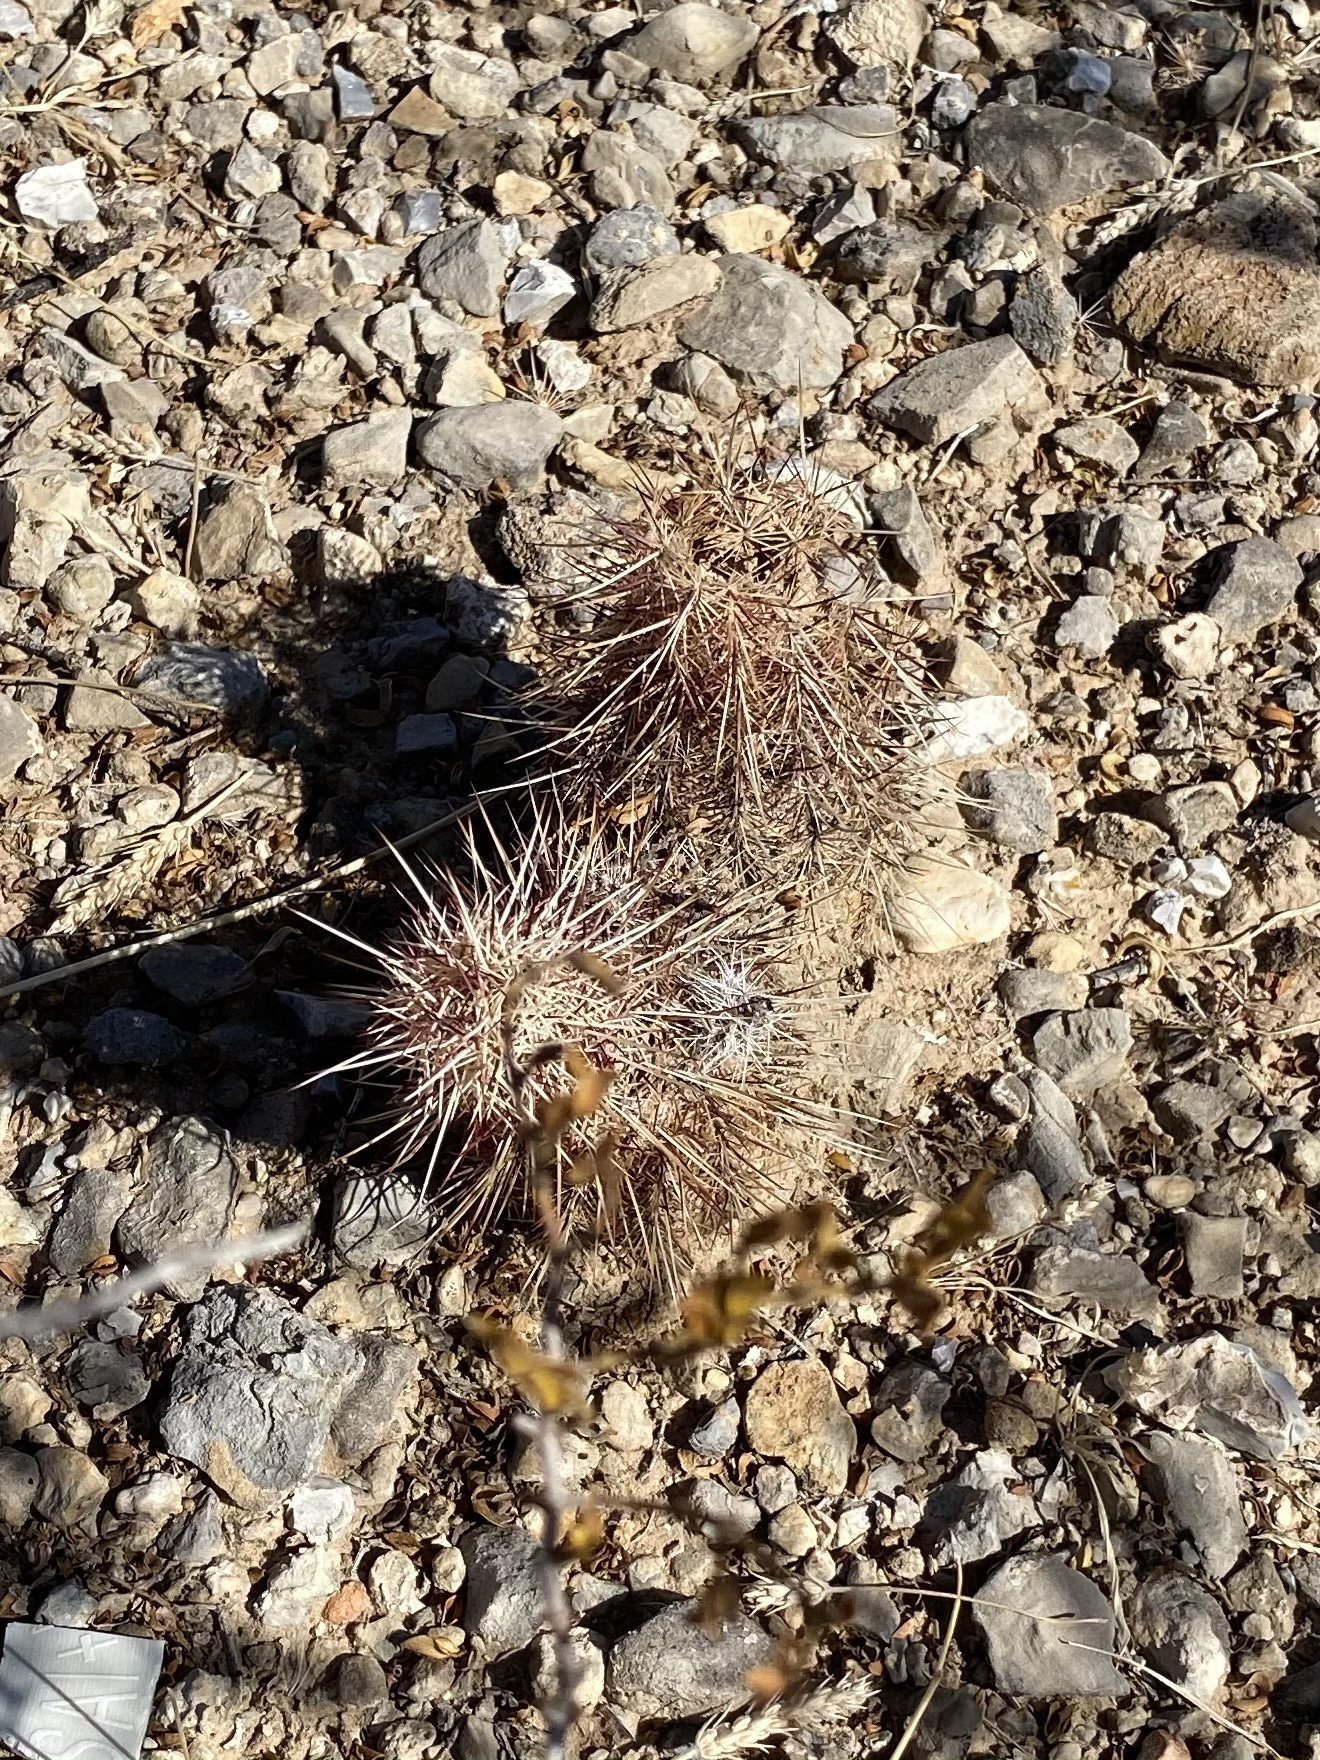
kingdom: Plantae
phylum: Tracheophyta
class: Magnoliopsida
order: Caryophyllales
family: Cactaceae
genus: Echinocereus
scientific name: Echinocereus viridiflorus
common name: Nylon hedgehog cactus
